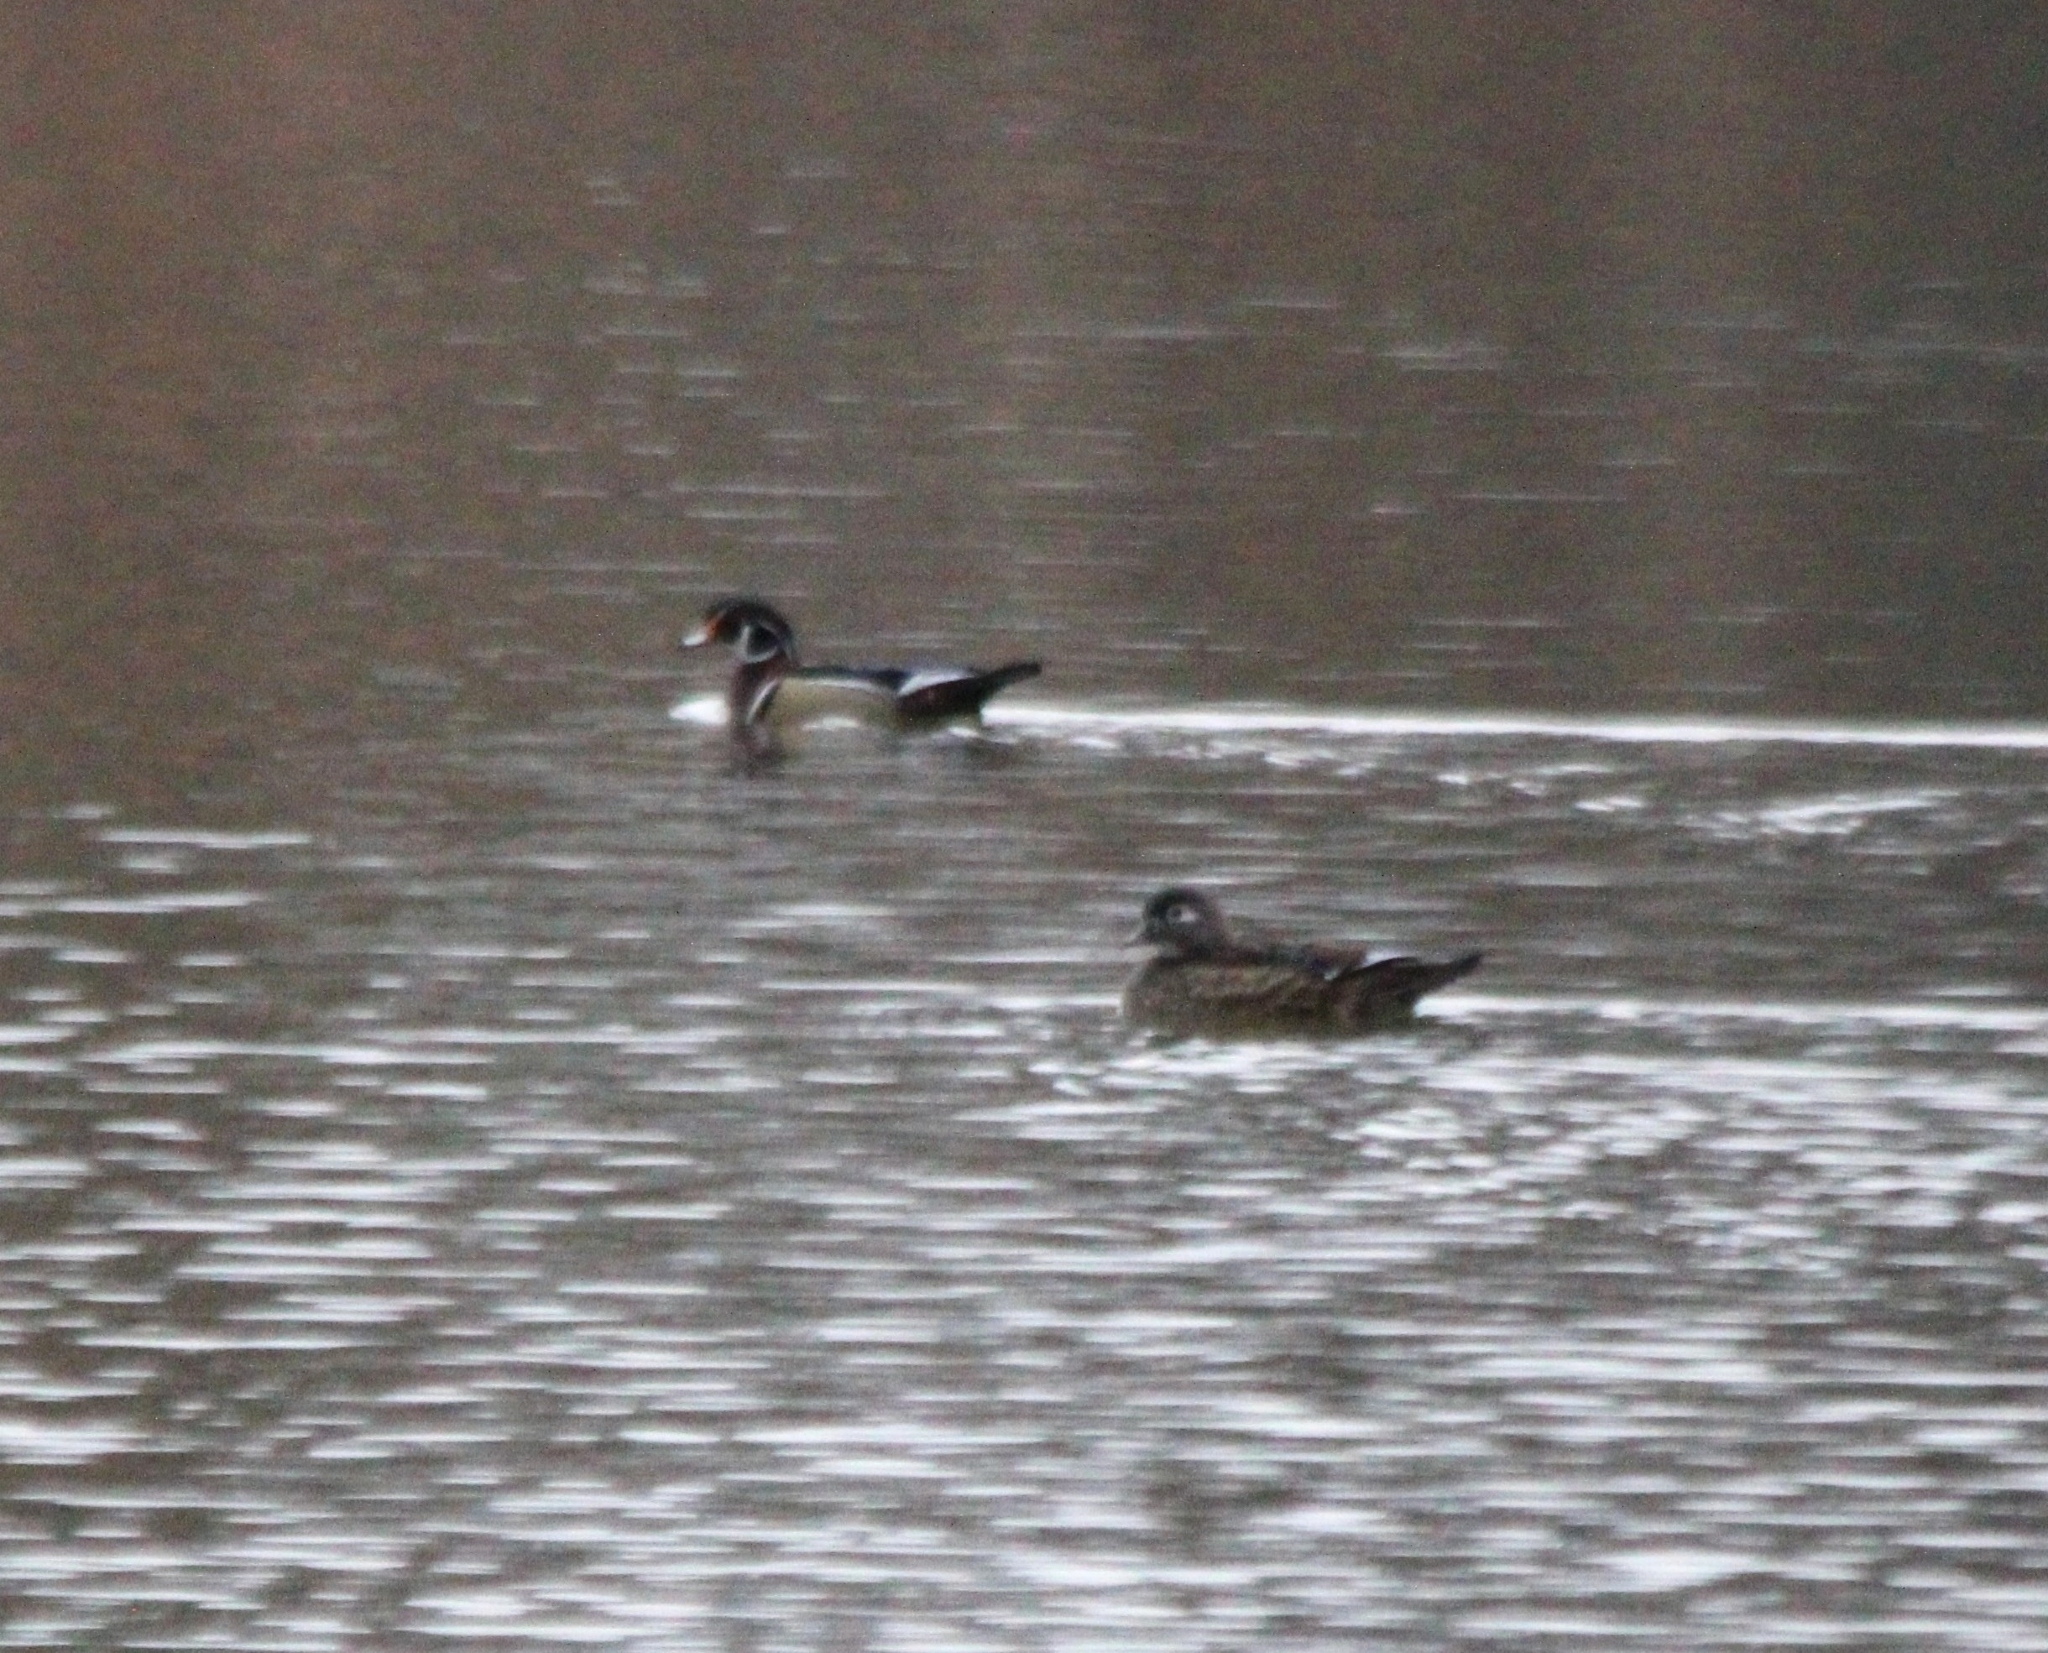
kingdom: Animalia
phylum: Chordata
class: Aves
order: Anseriformes
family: Anatidae
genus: Aix
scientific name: Aix sponsa
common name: Wood duck
